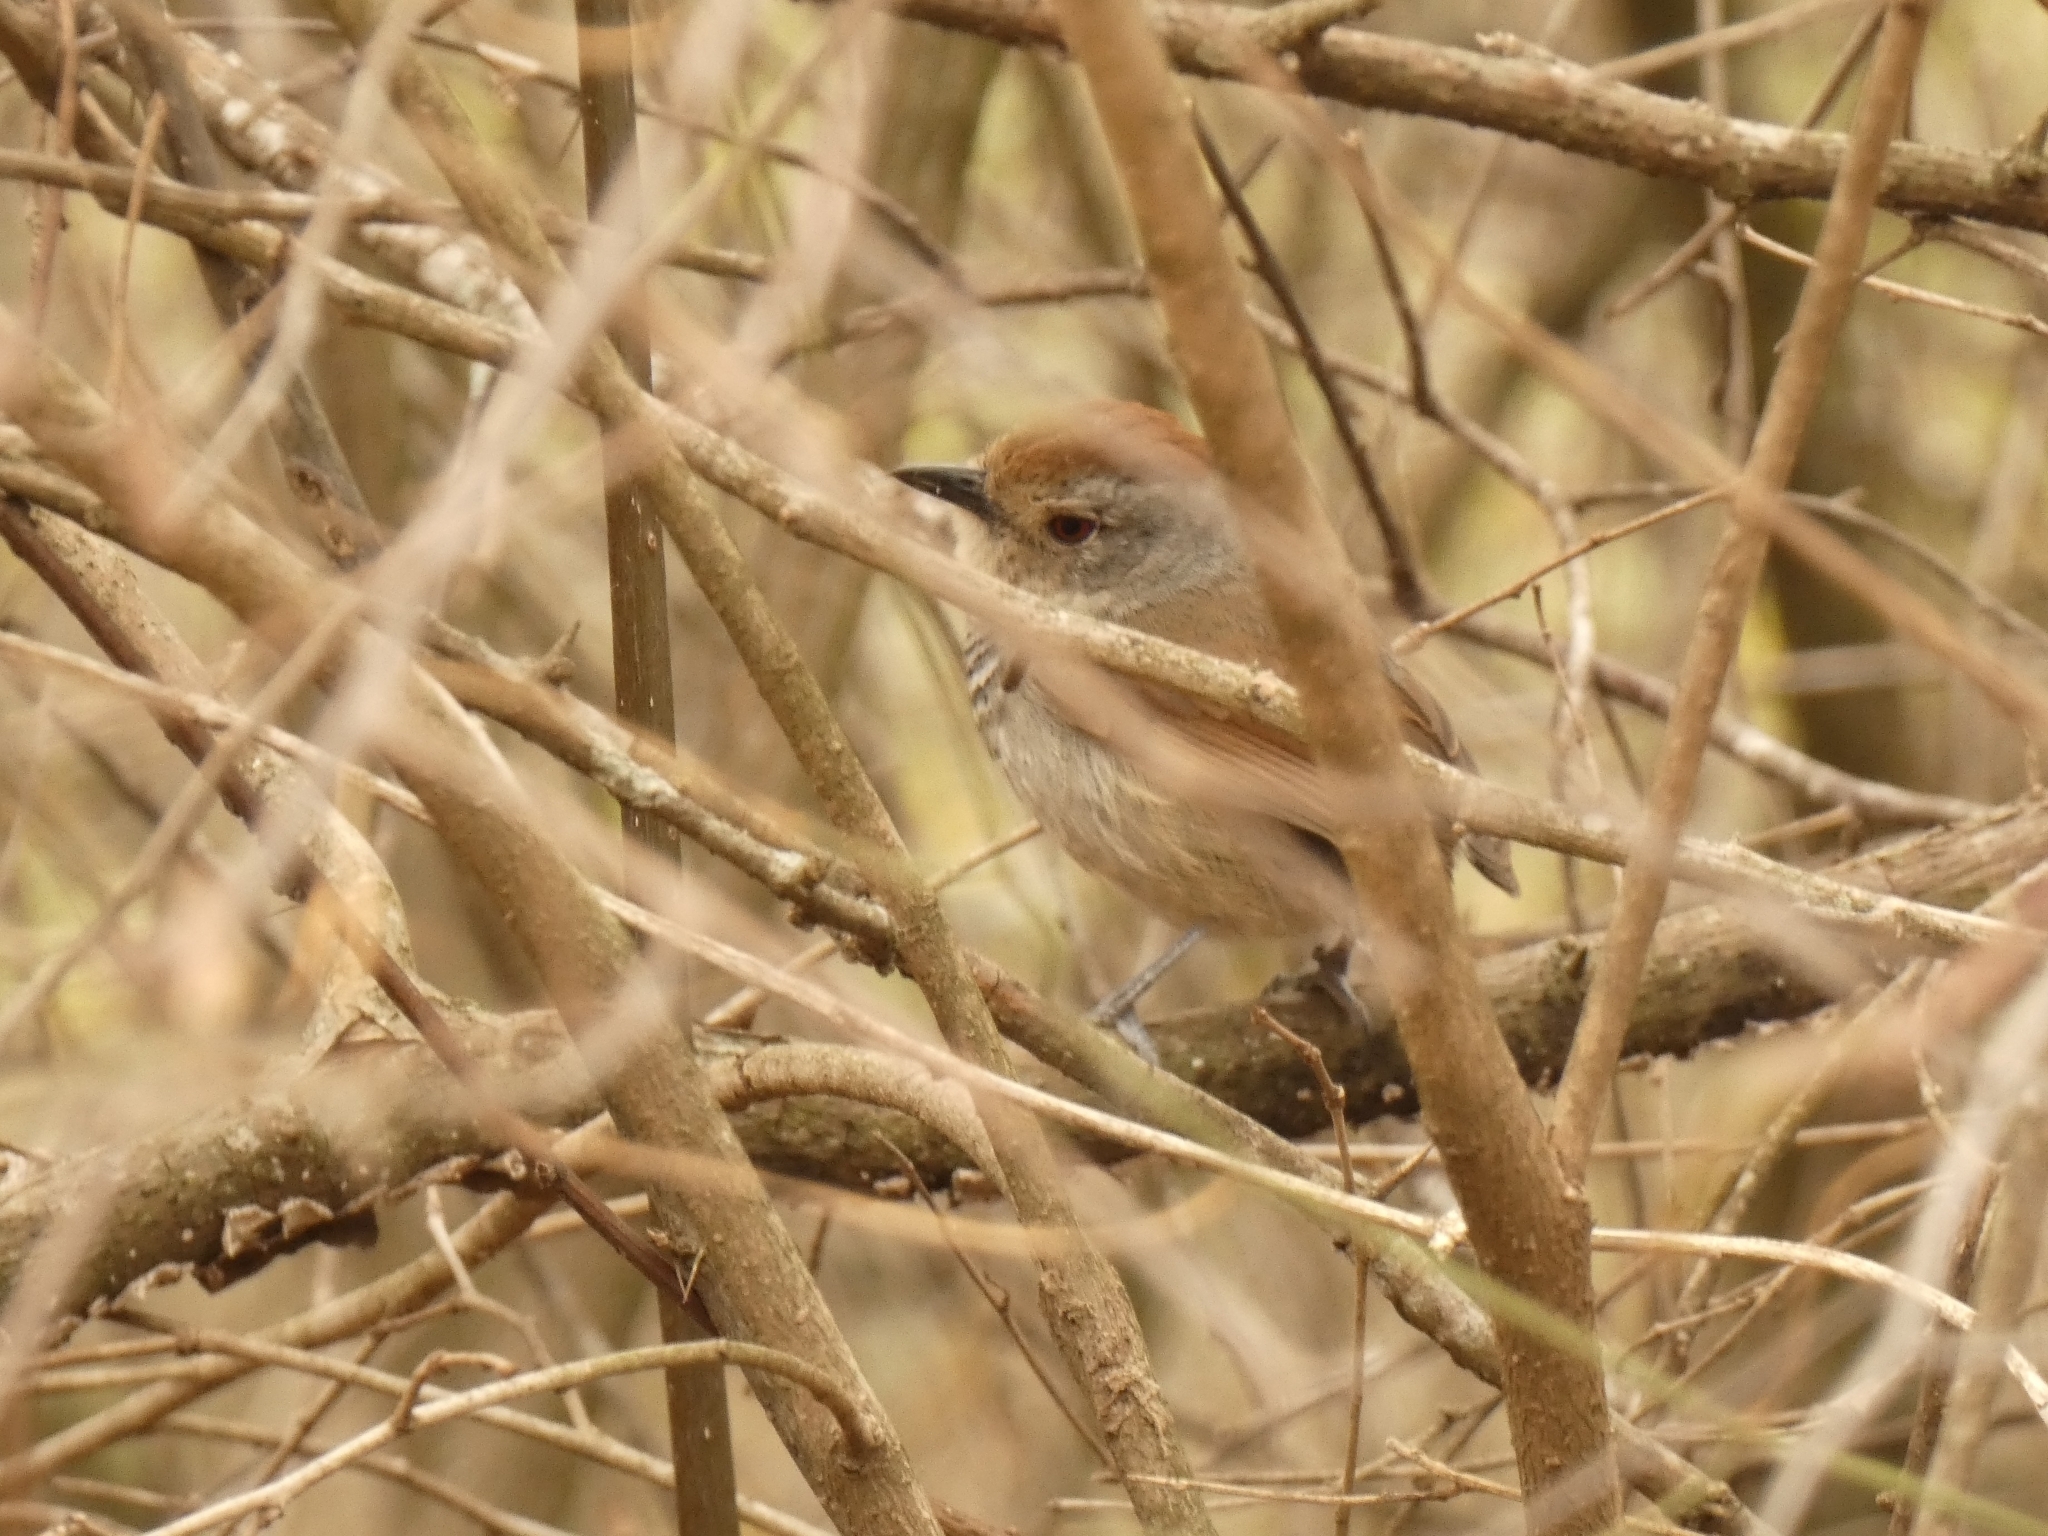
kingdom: Animalia
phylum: Chordata
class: Aves
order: Passeriformes
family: Thamnophilidae
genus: Thamnophilus
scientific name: Thamnophilus ruficapillus
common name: Rufous-capped antshrike
